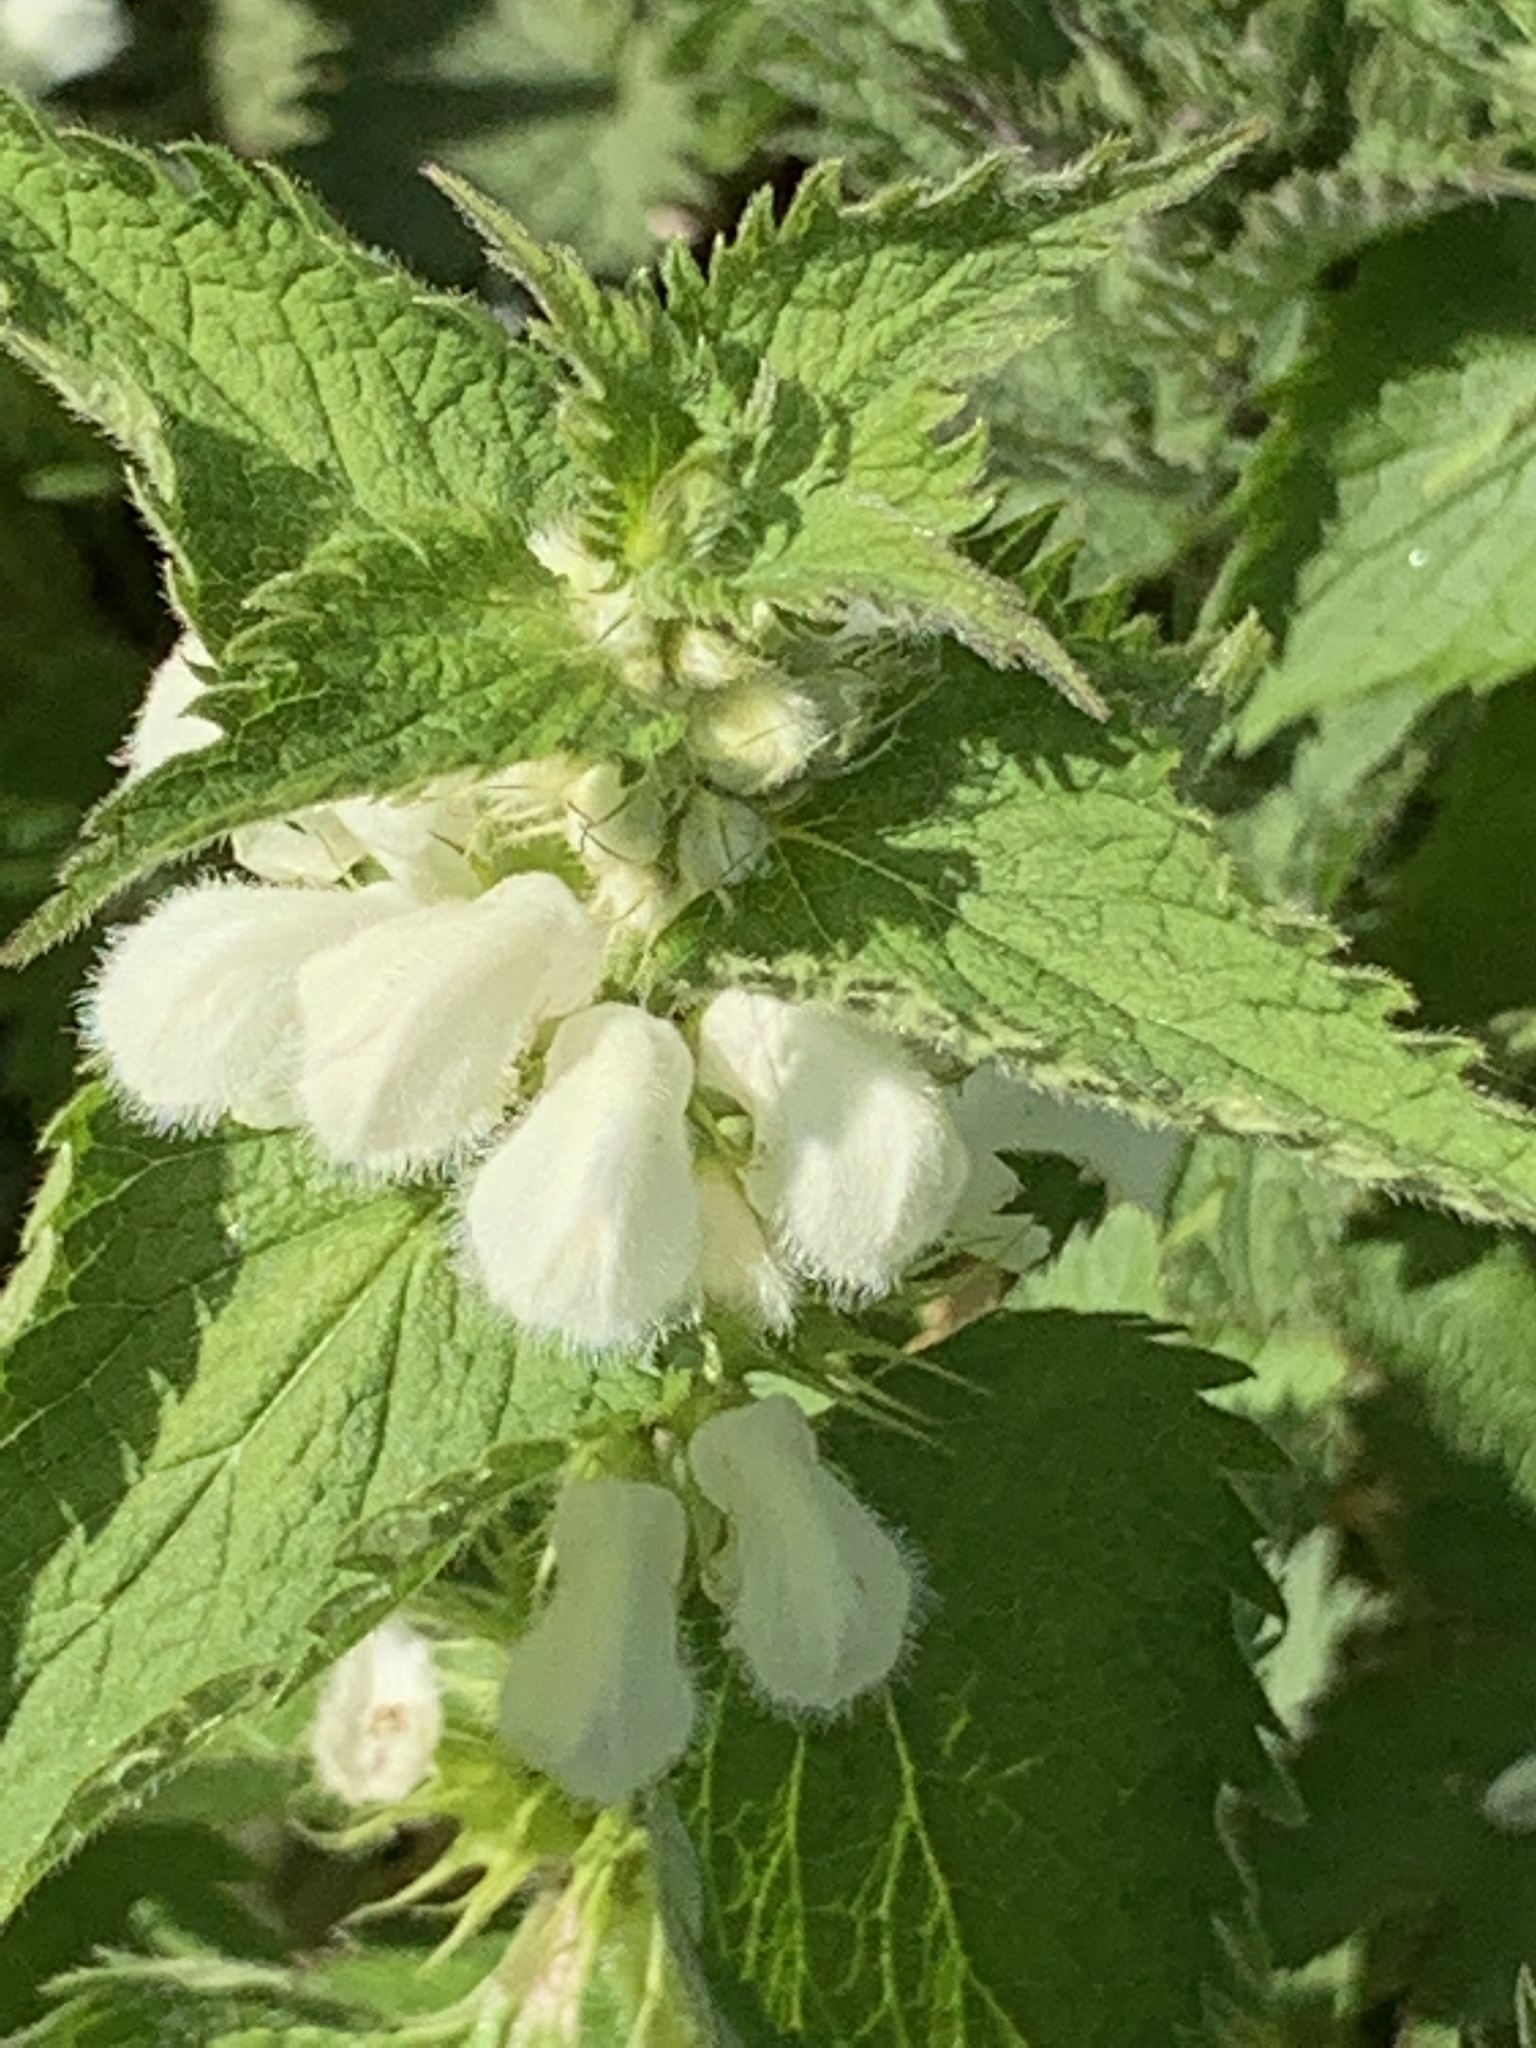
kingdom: Plantae
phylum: Tracheophyta
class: Magnoliopsida
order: Lamiales
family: Lamiaceae
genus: Lamium
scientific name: Lamium album
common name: White dead-nettle
